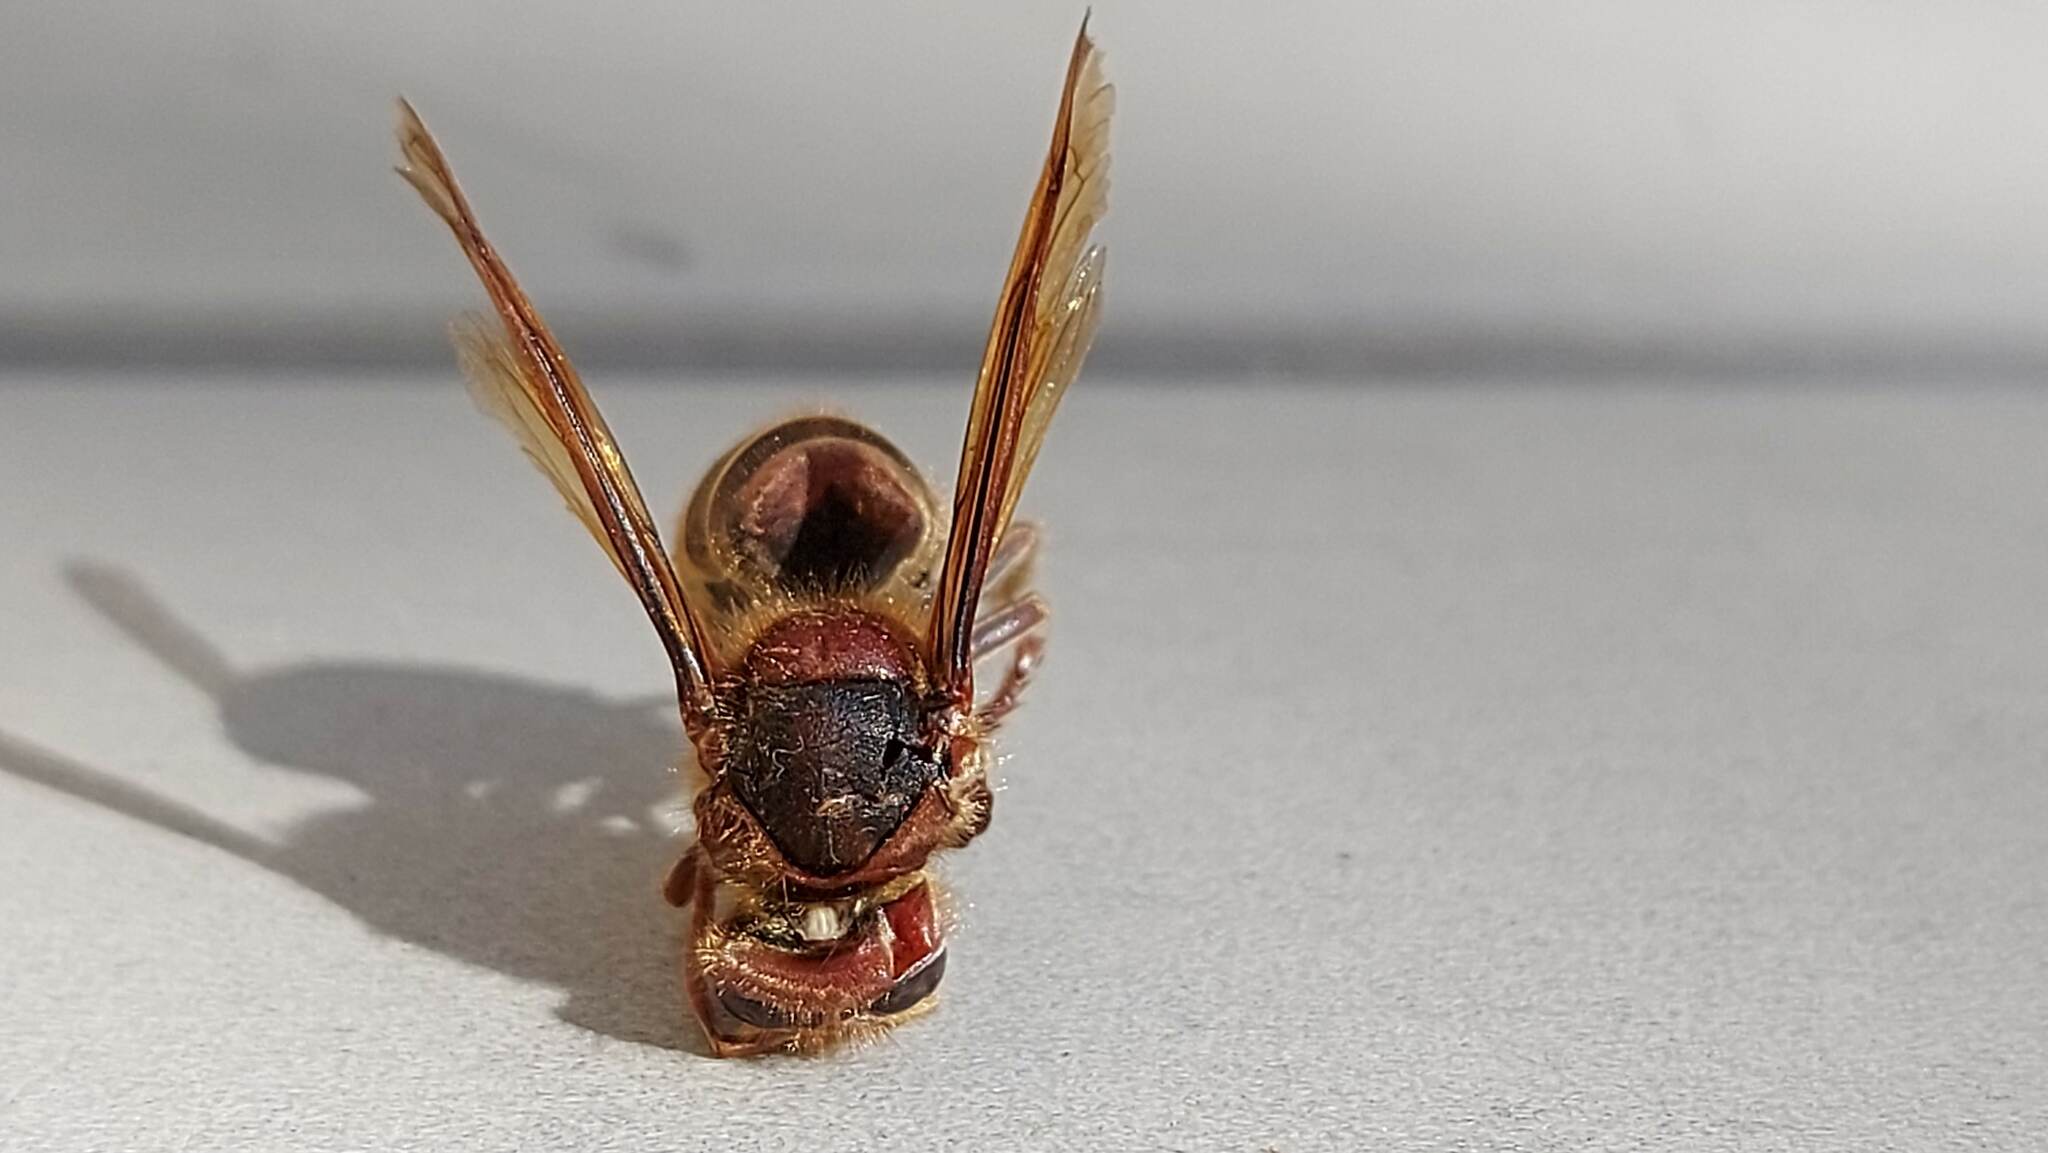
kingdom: Animalia
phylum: Arthropoda
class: Insecta
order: Hymenoptera
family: Vespidae
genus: Vespa
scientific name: Vespa crabro
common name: Hornet
